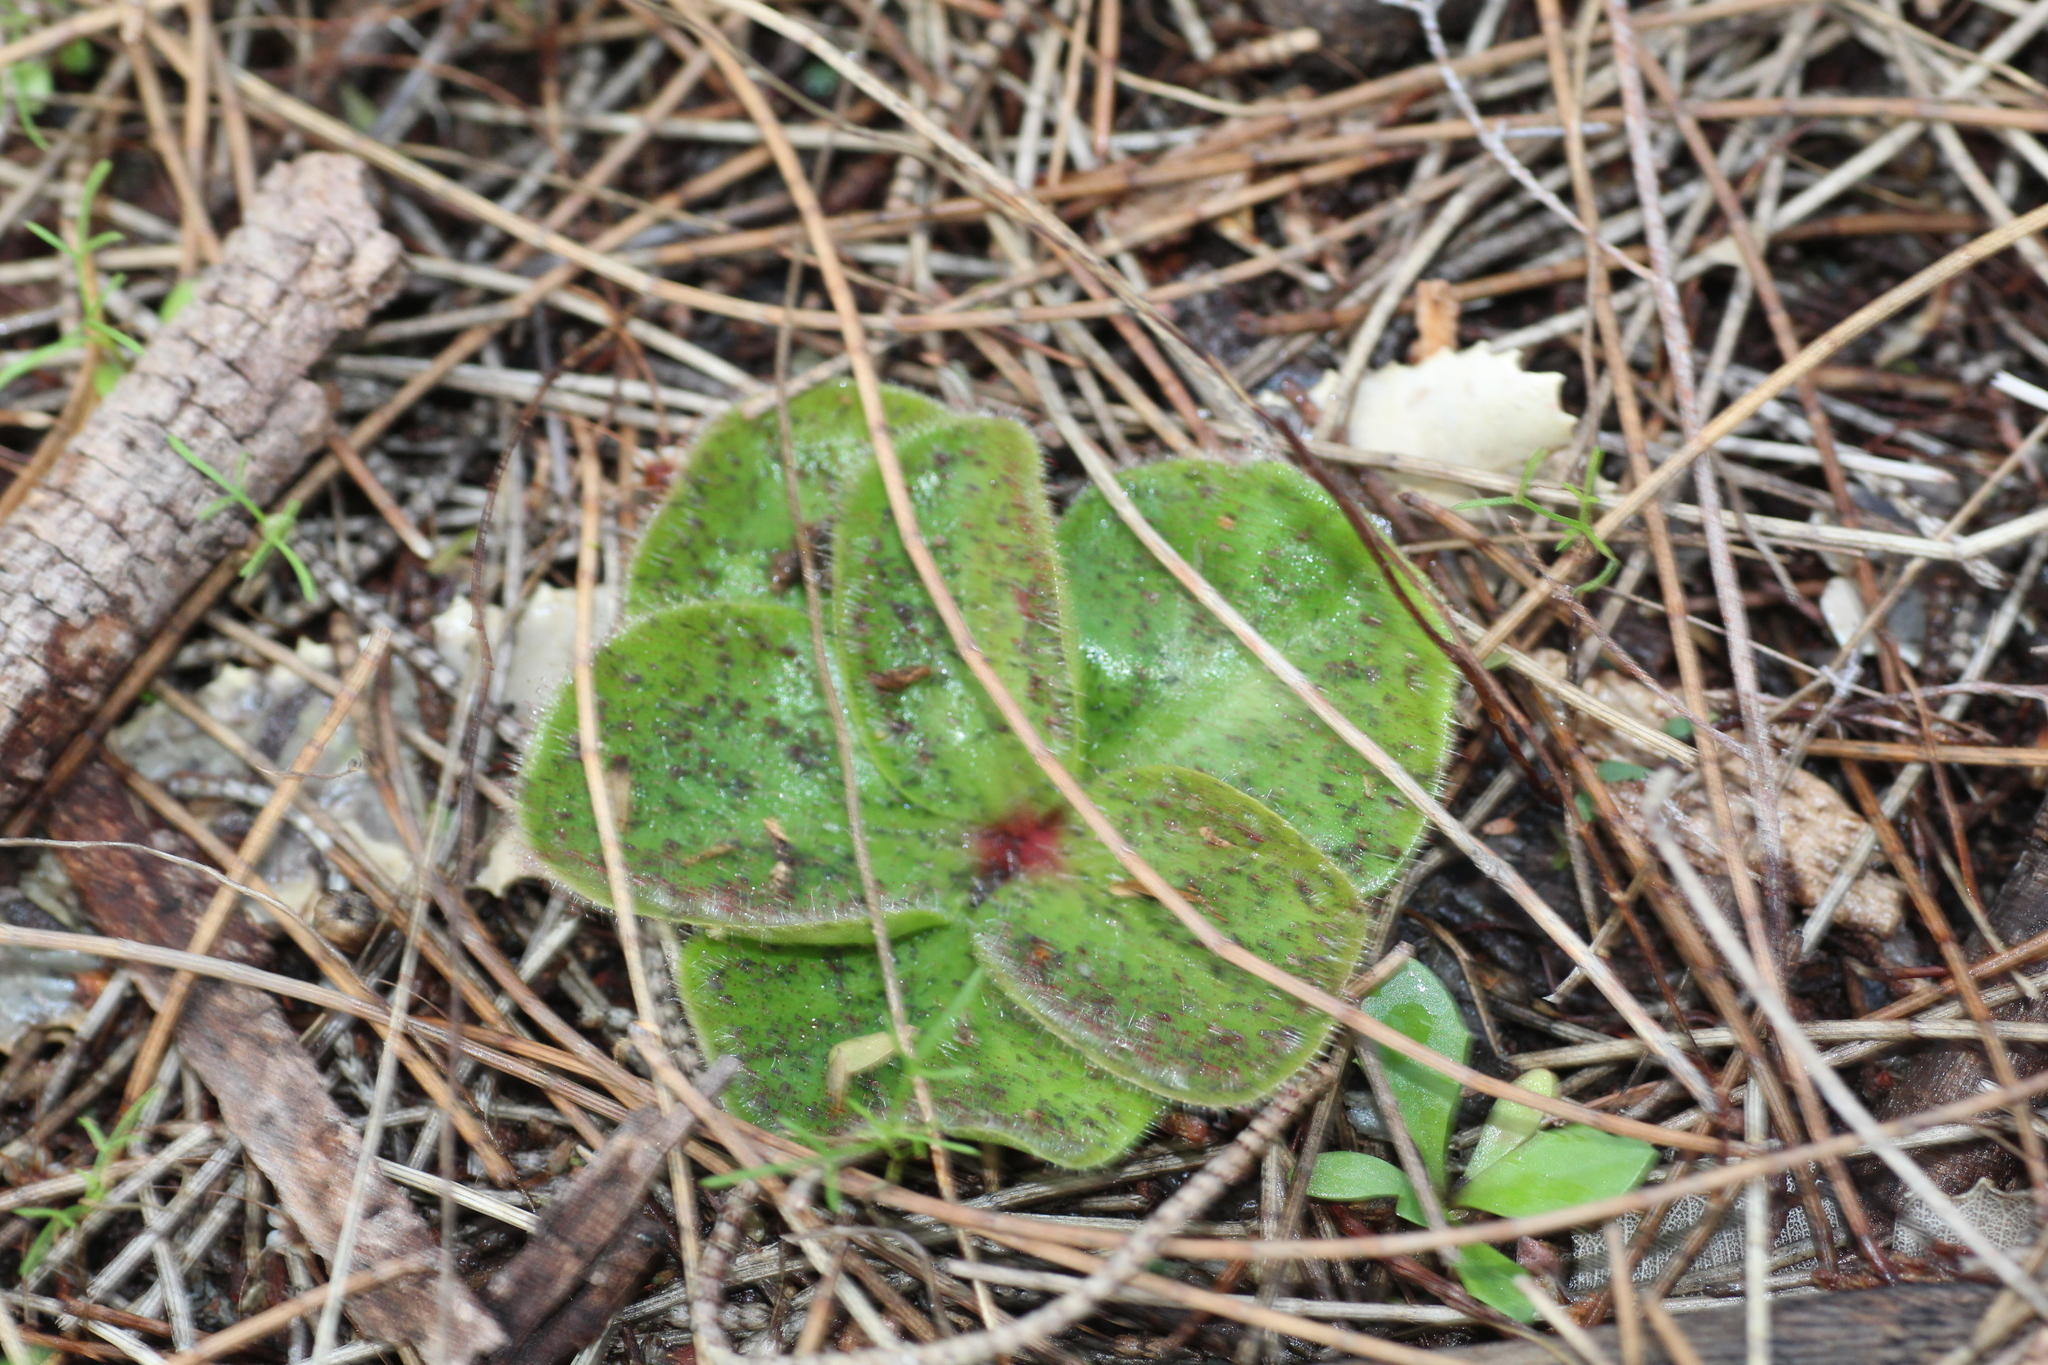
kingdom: Plantae
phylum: Tracheophyta
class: Magnoliopsida
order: Caryophyllales
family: Droseraceae
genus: Drosera
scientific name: Drosera erythrorhiza
